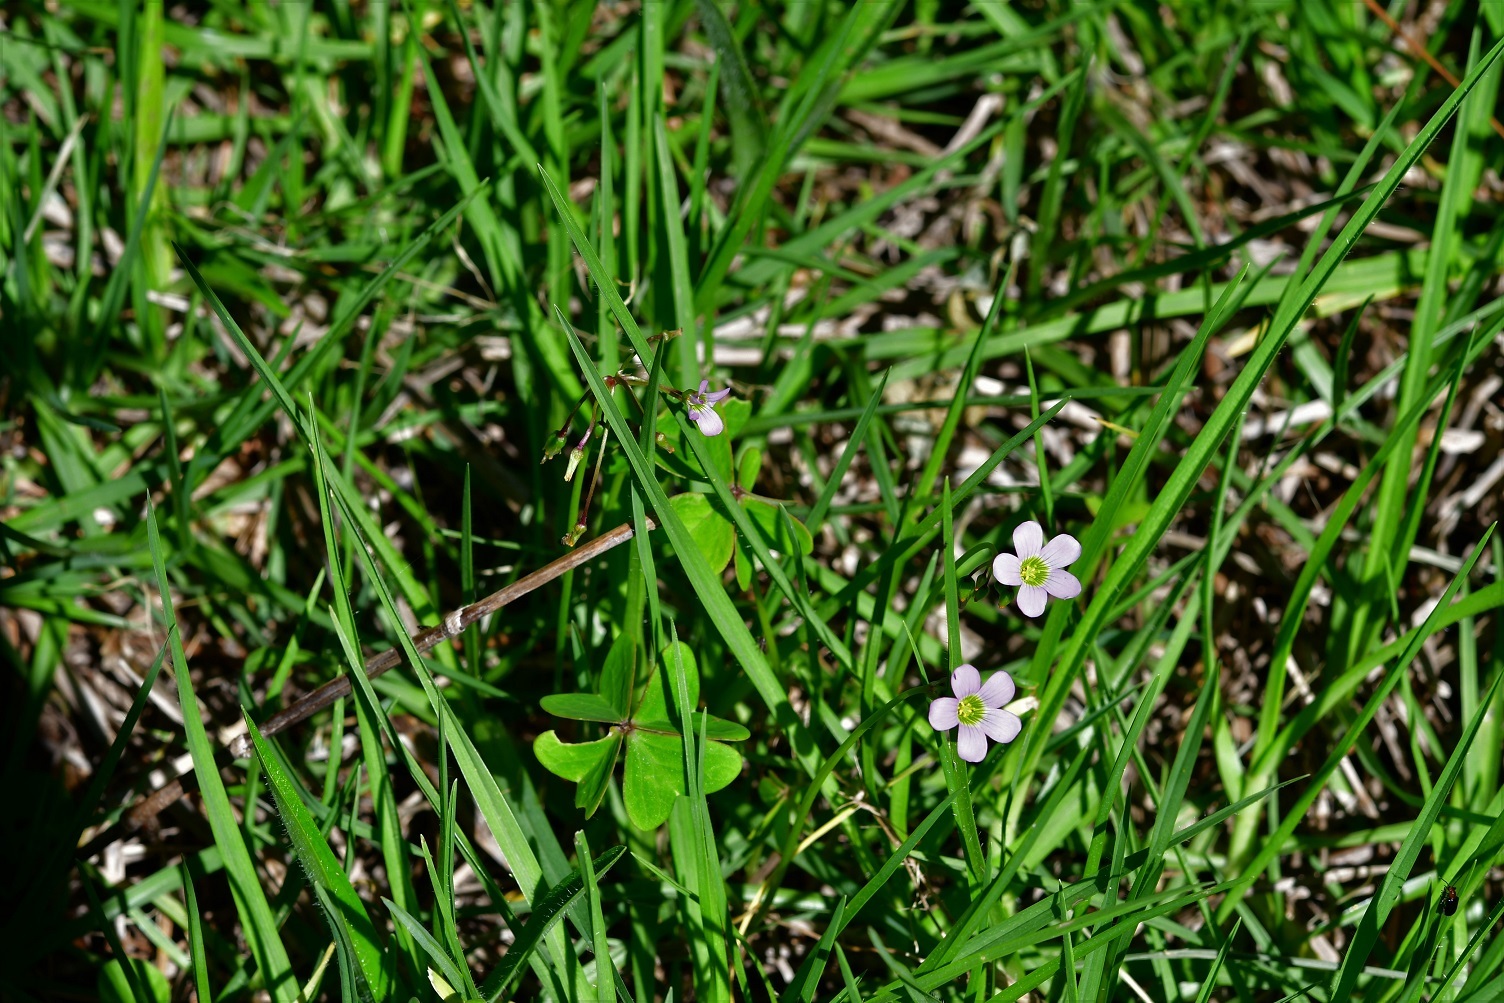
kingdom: Plantae
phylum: Tracheophyta
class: Magnoliopsida
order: Oxalidales
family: Oxalidaceae
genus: Oxalis
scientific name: Oxalis tetraphylla
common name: Four-leaved pink-sorrel
